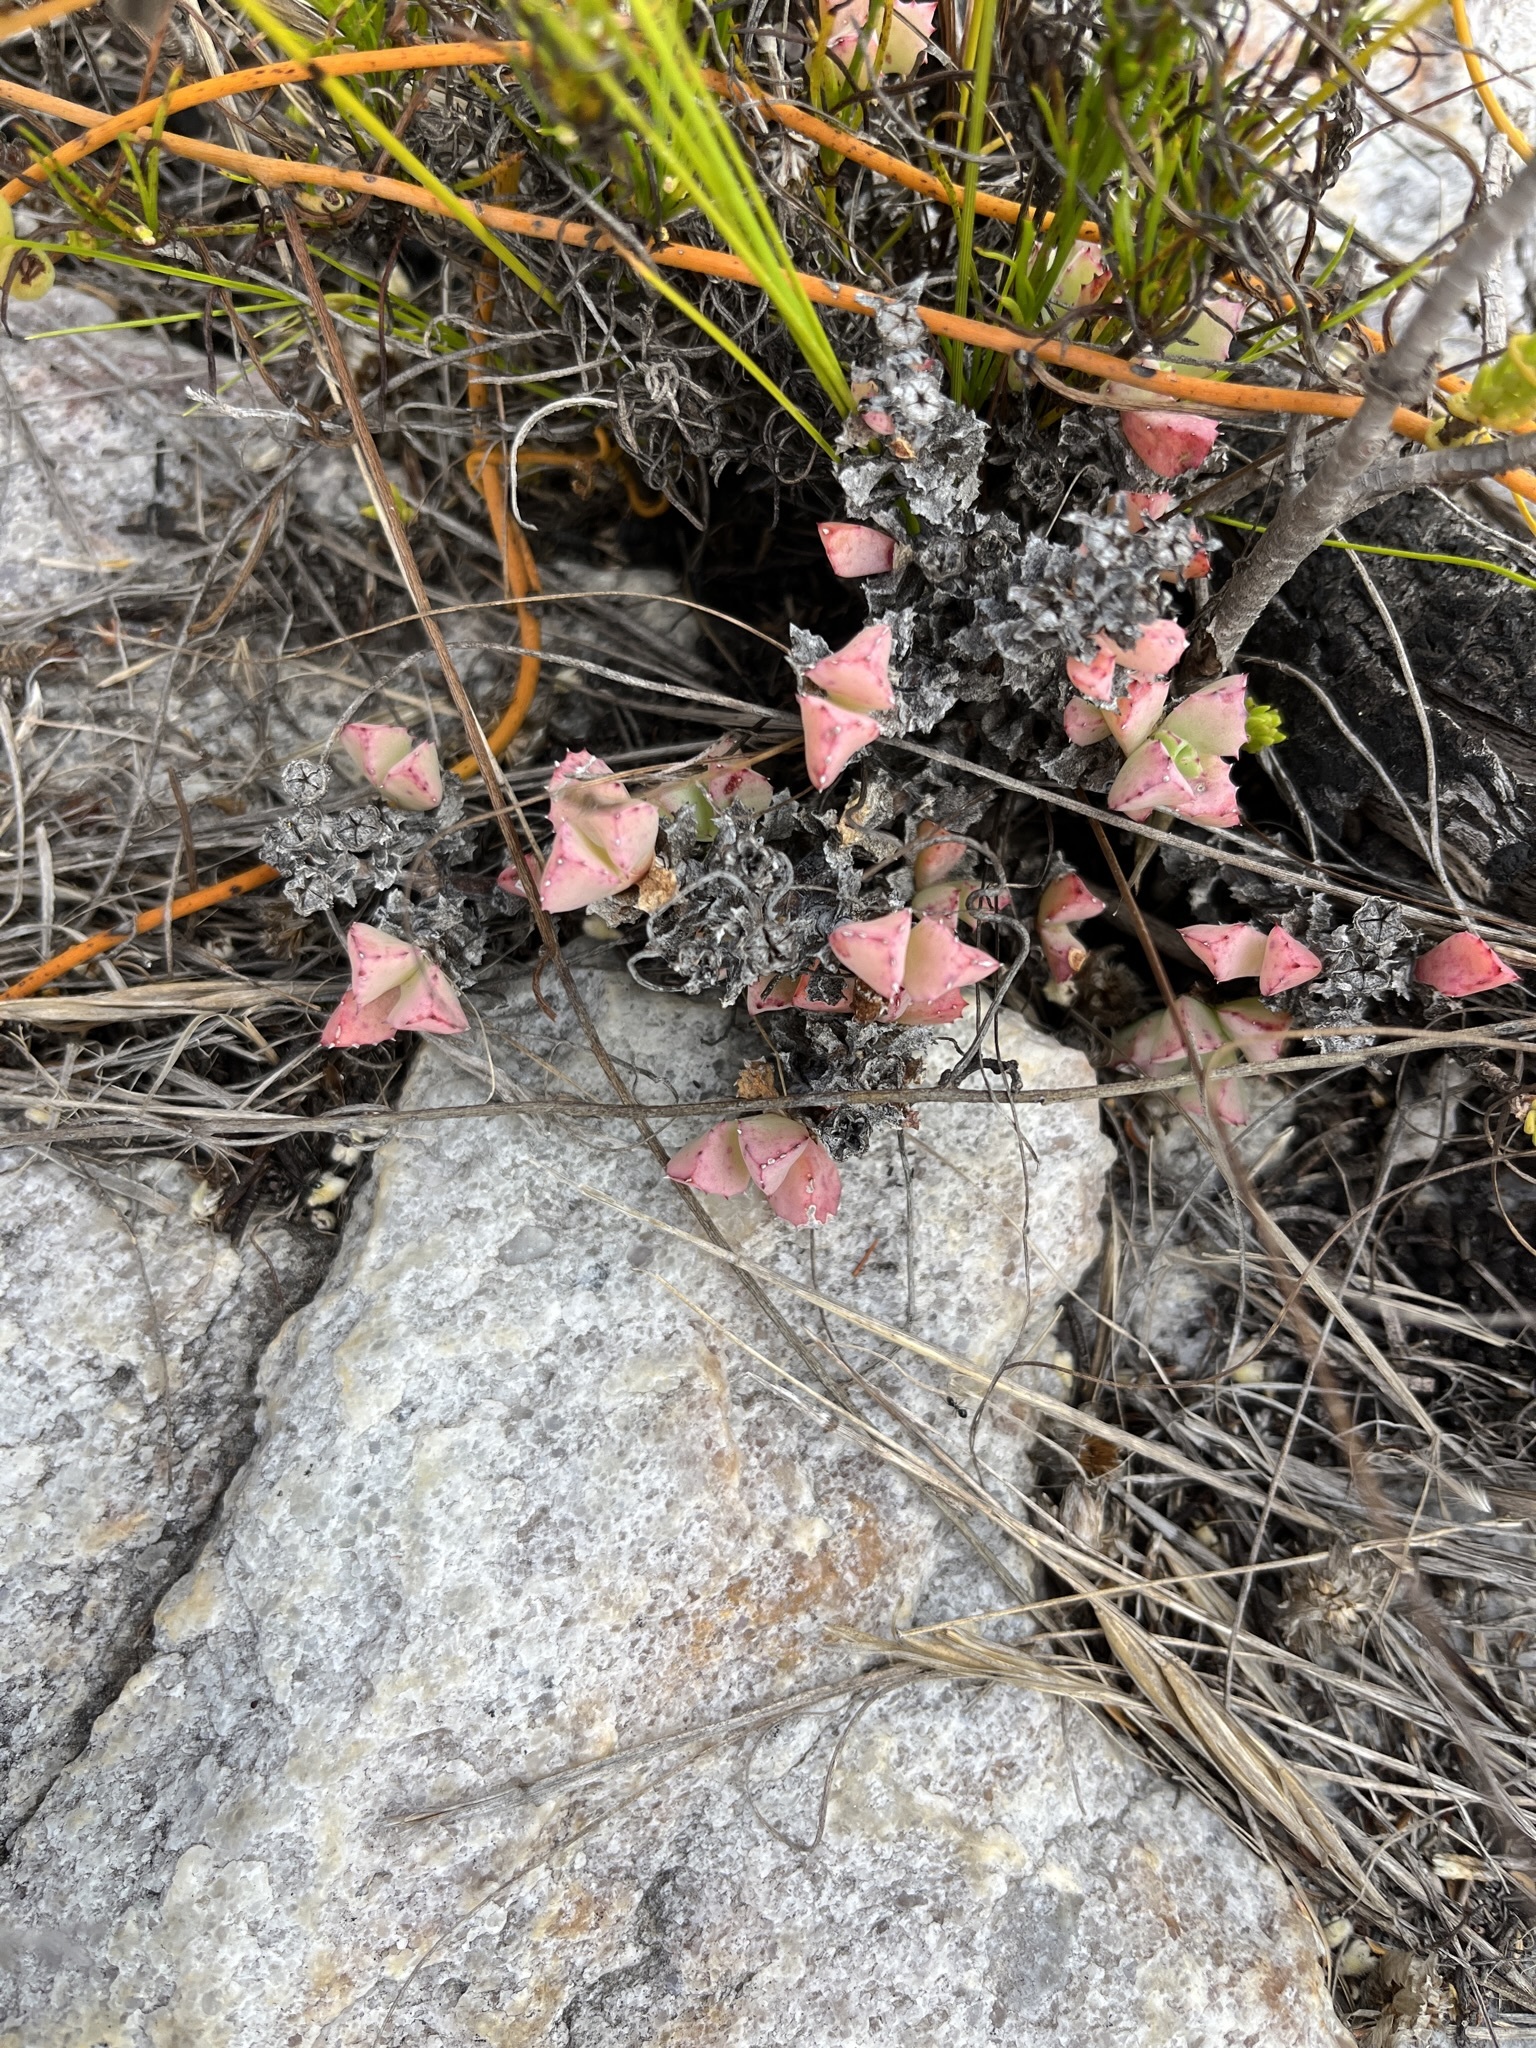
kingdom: Plantae
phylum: Tracheophyta
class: Magnoliopsida
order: Caryophyllales
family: Aizoaceae
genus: Oscularia
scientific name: Oscularia deltoides
